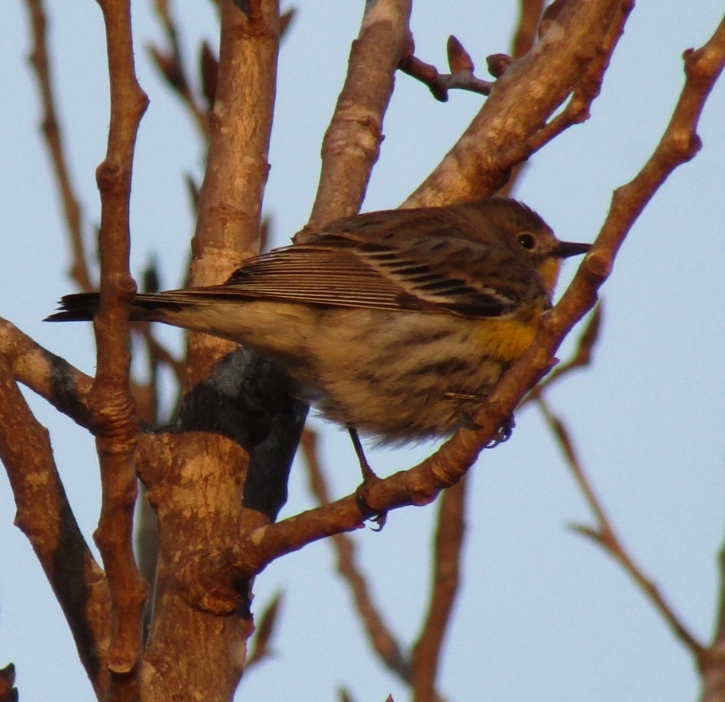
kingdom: Animalia
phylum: Chordata
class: Aves
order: Passeriformes
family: Parulidae
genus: Setophaga
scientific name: Setophaga coronata
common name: Myrtle warbler
